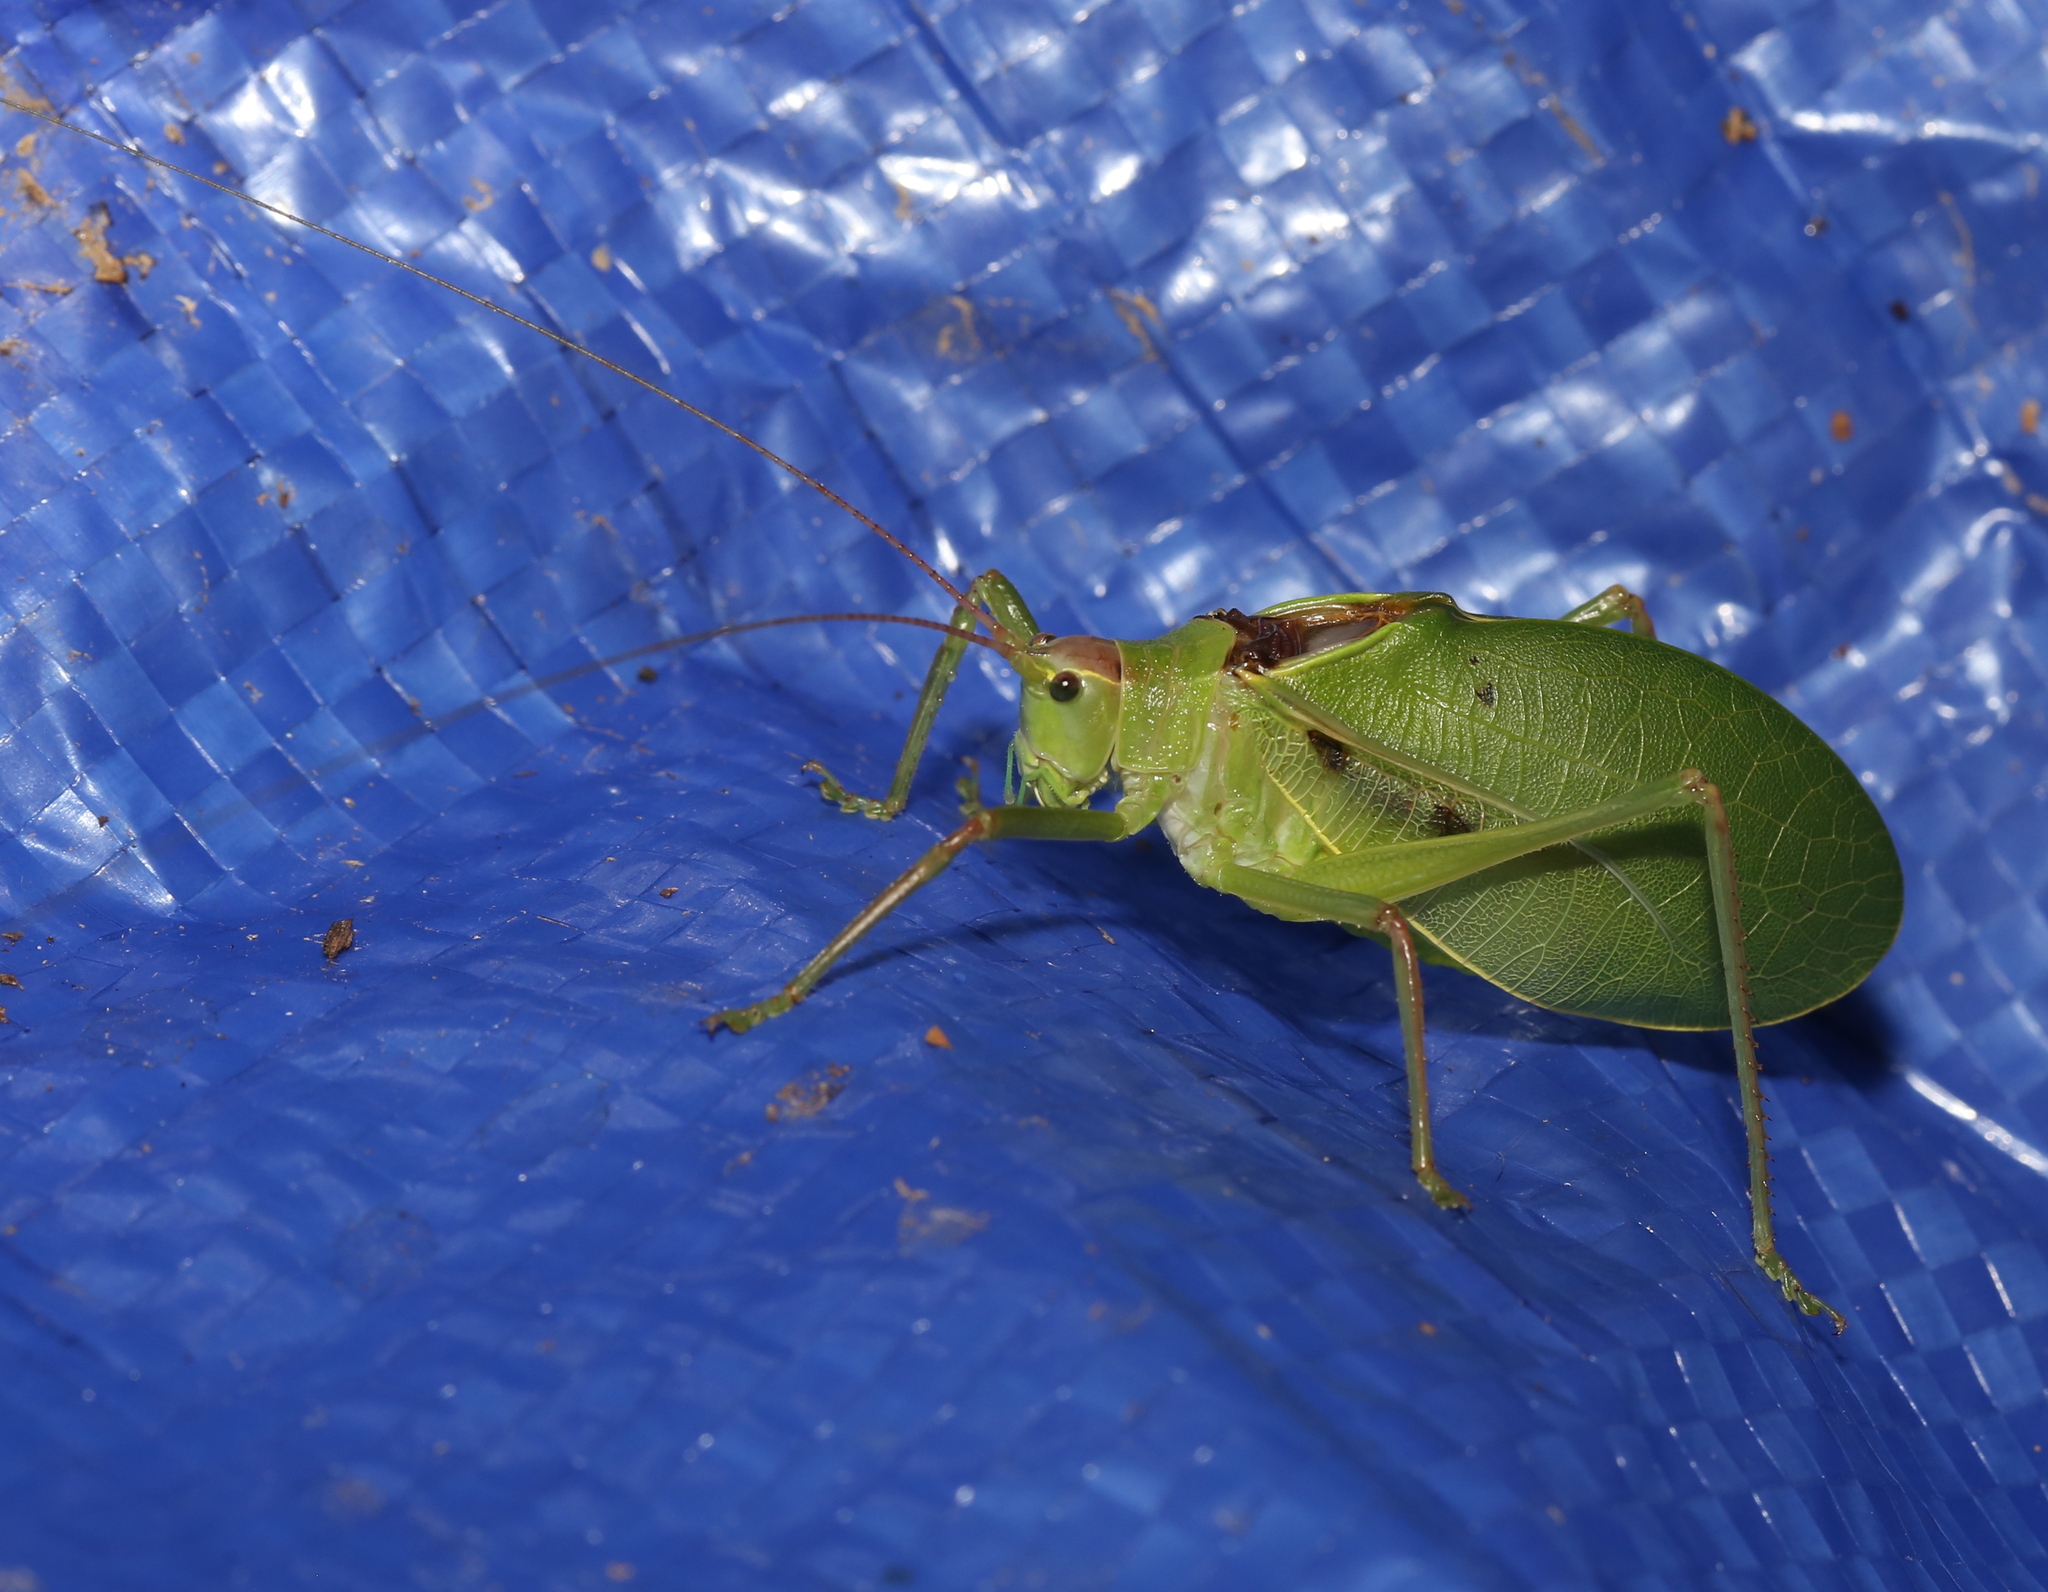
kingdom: Animalia
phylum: Arthropoda
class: Insecta
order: Orthoptera
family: Tettigoniidae
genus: Pterophylla
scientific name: Pterophylla camellifolia
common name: Common true katydid
